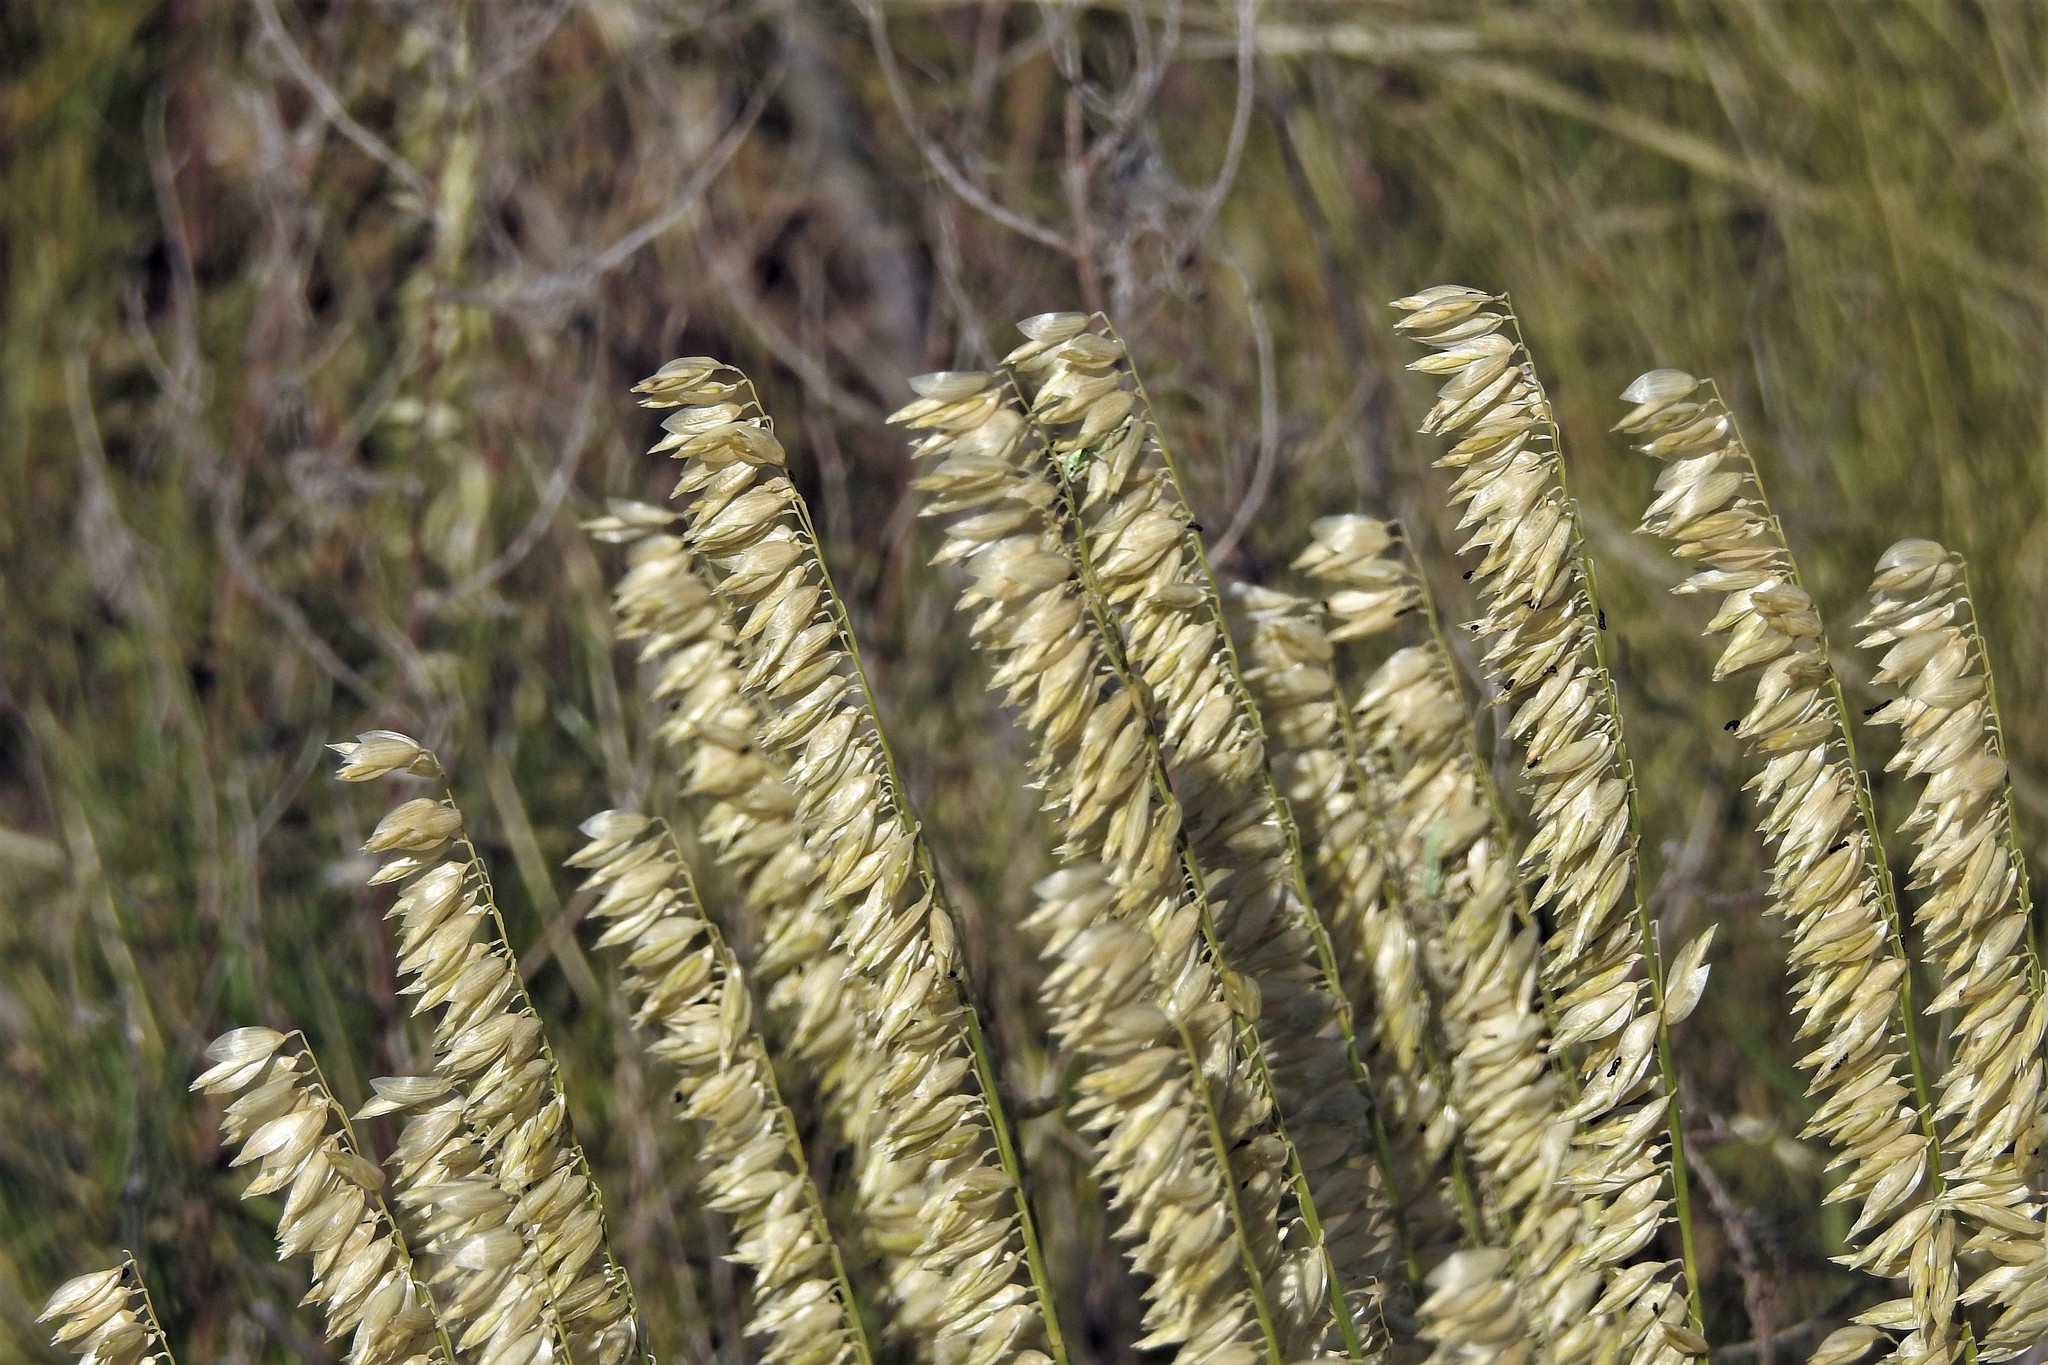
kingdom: Plantae
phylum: Tracheophyta
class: Liliopsida
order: Poales
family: Poaceae
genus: Melica
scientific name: Melica macra
